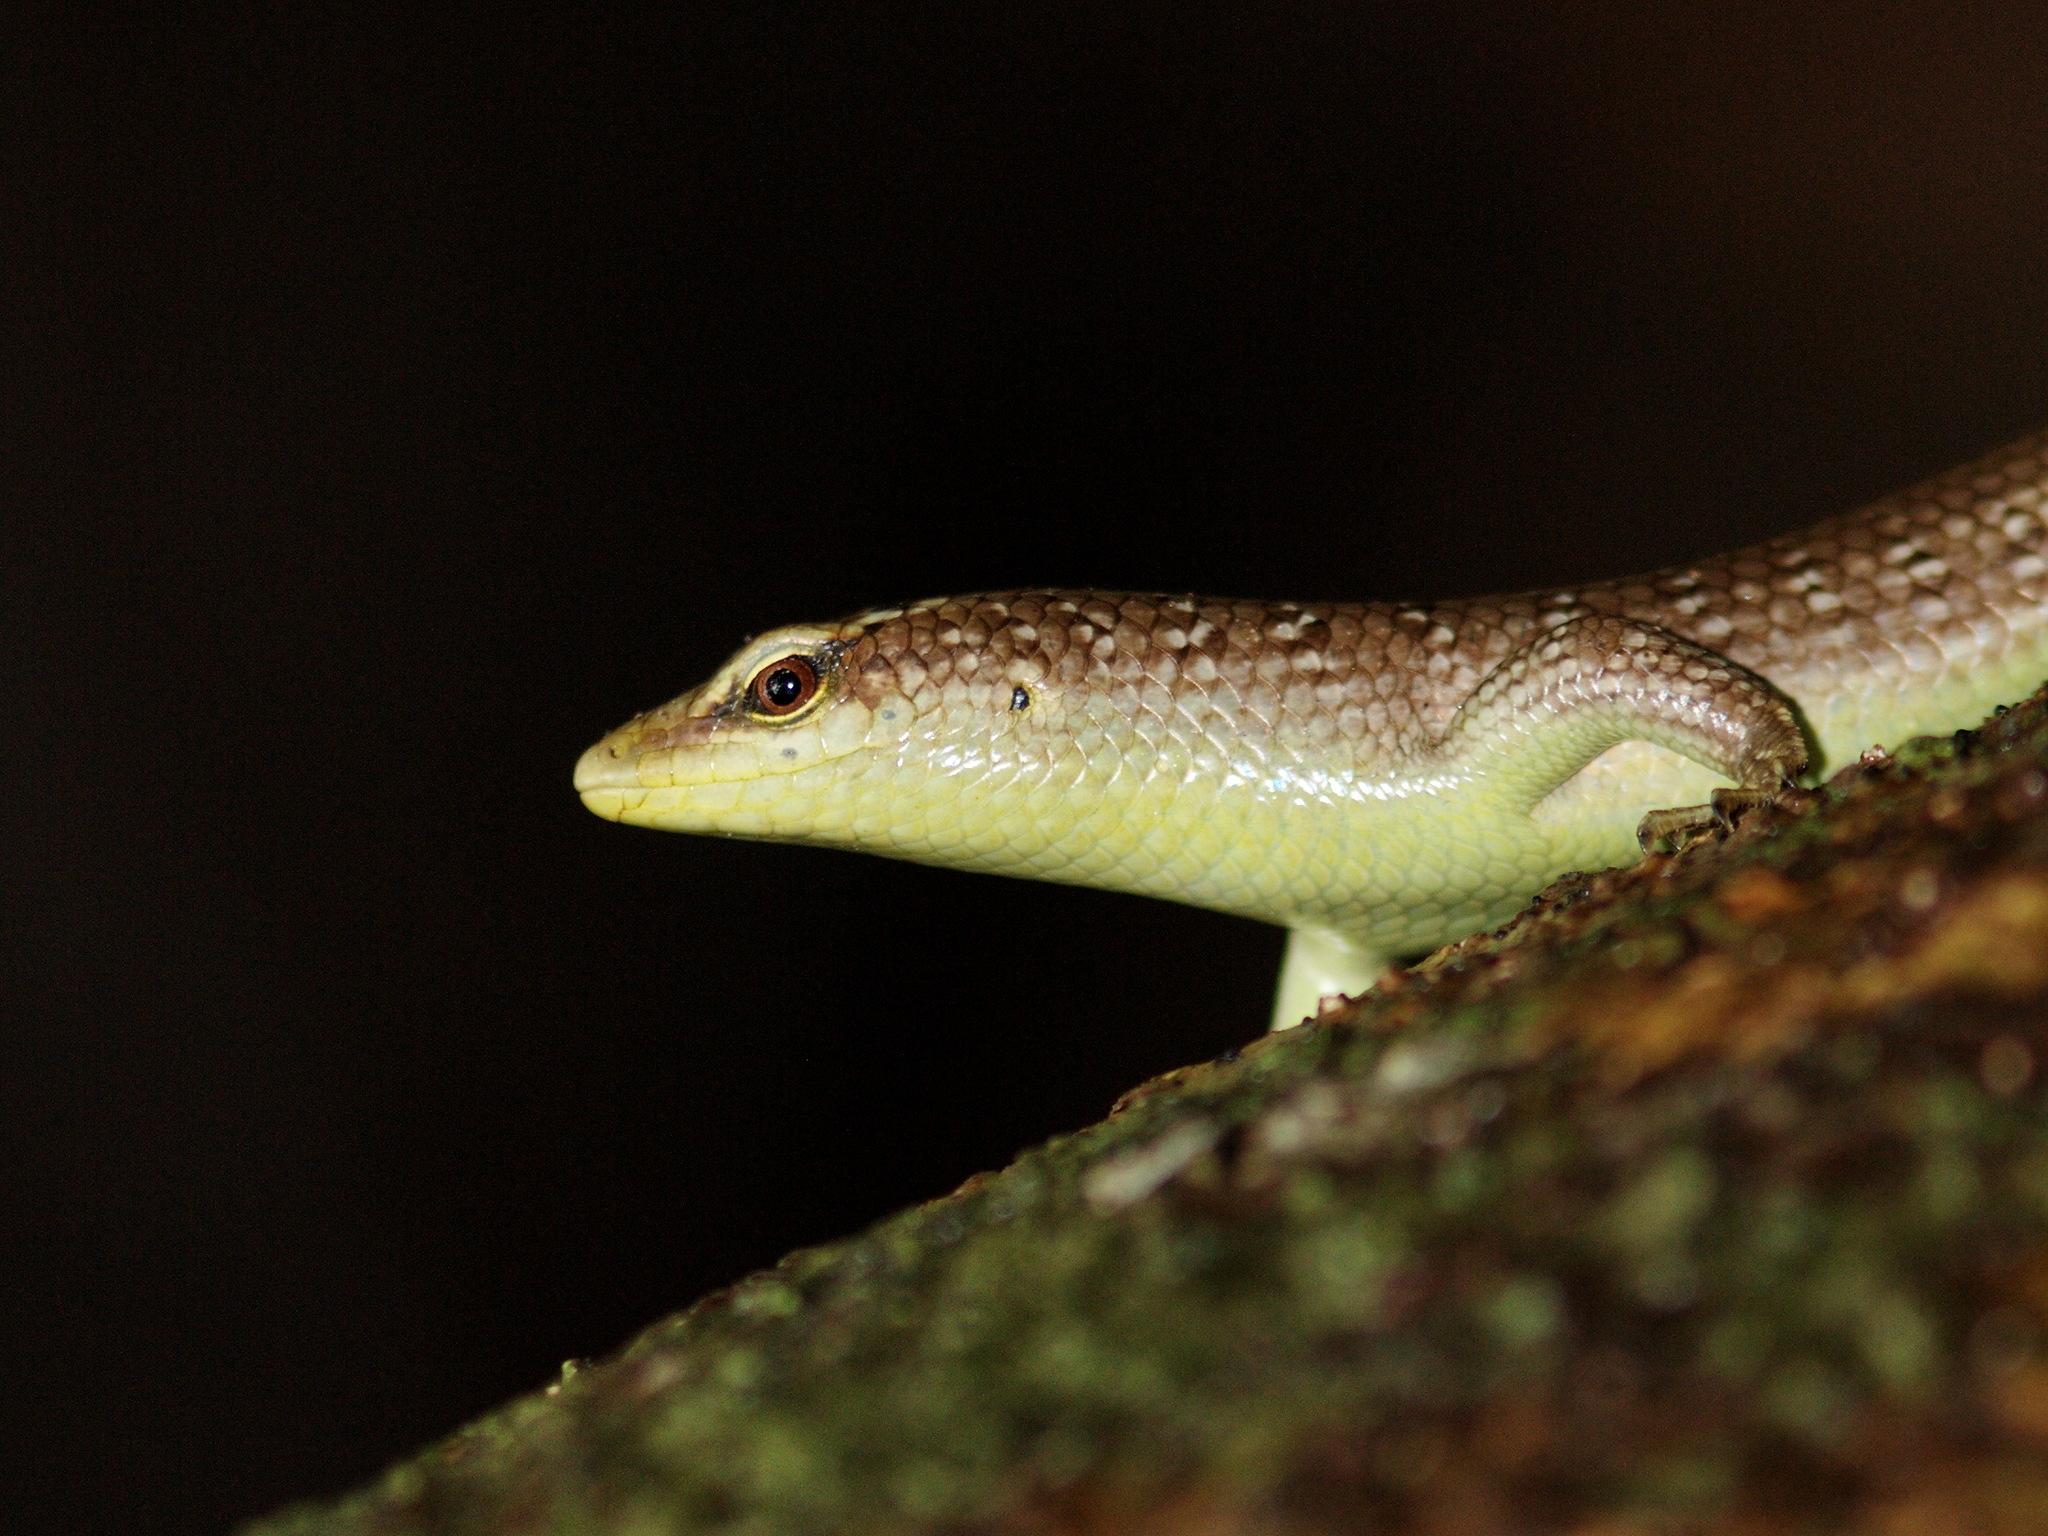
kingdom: Animalia
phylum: Chordata
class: Squamata
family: Scincidae
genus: Dasia
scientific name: Dasia olivacea
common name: Olive dasia
